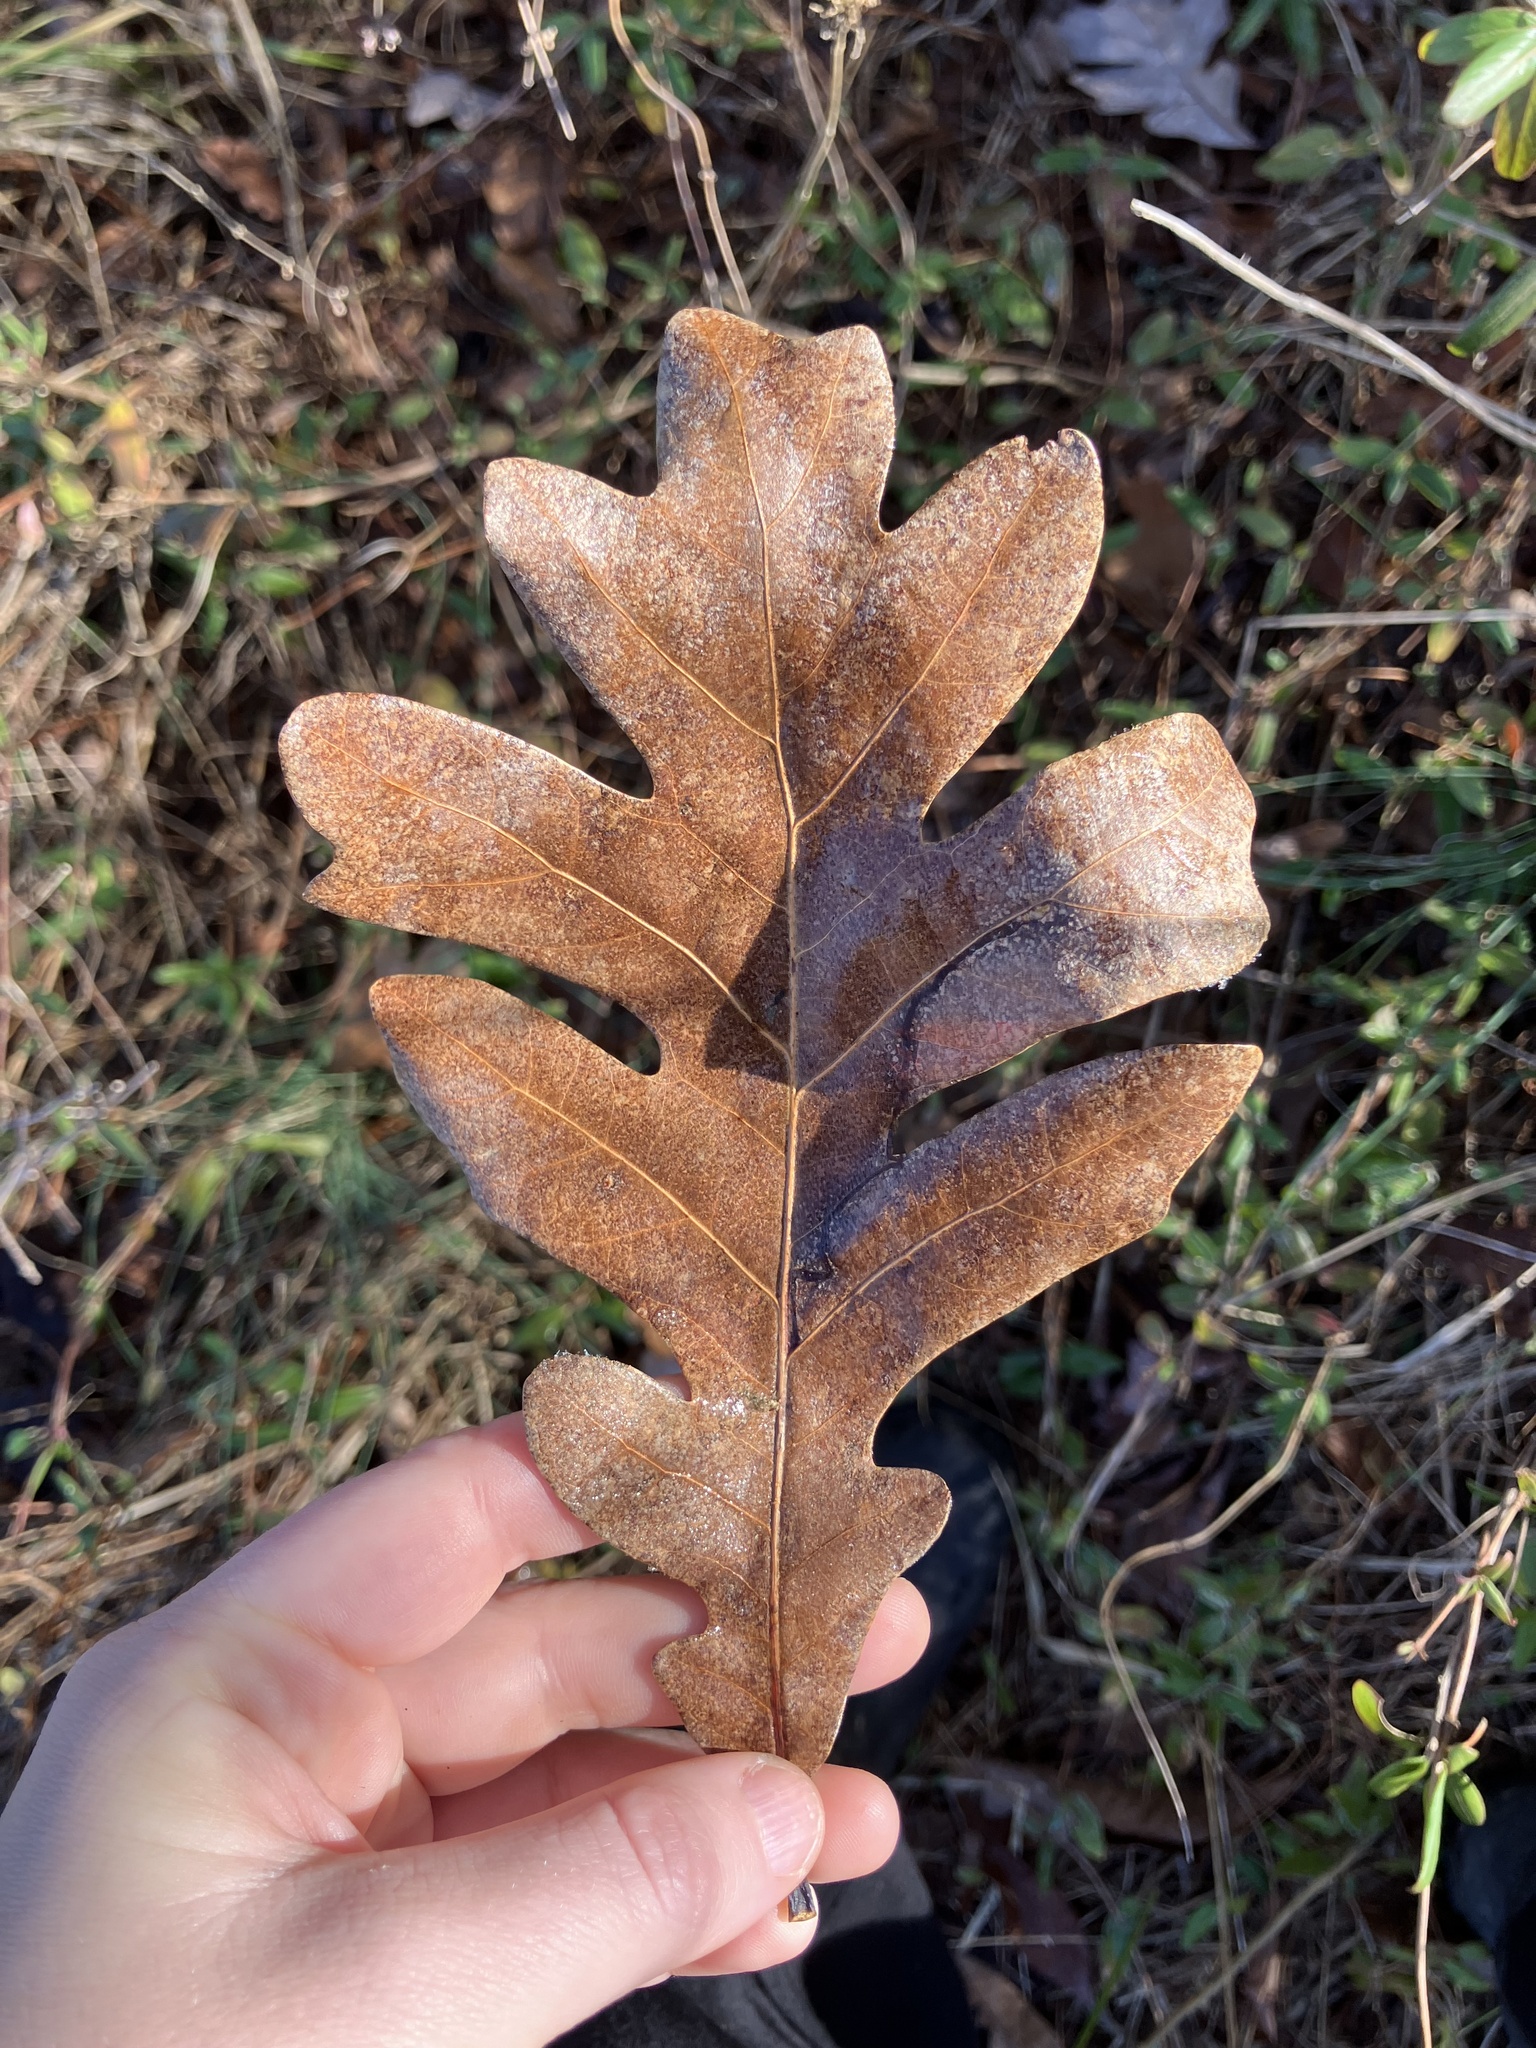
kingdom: Plantae
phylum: Tracheophyta
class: Magnoliopsida
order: Fagales
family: Fagaceae
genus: Quercus
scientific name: Quercus alba
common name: White oak
